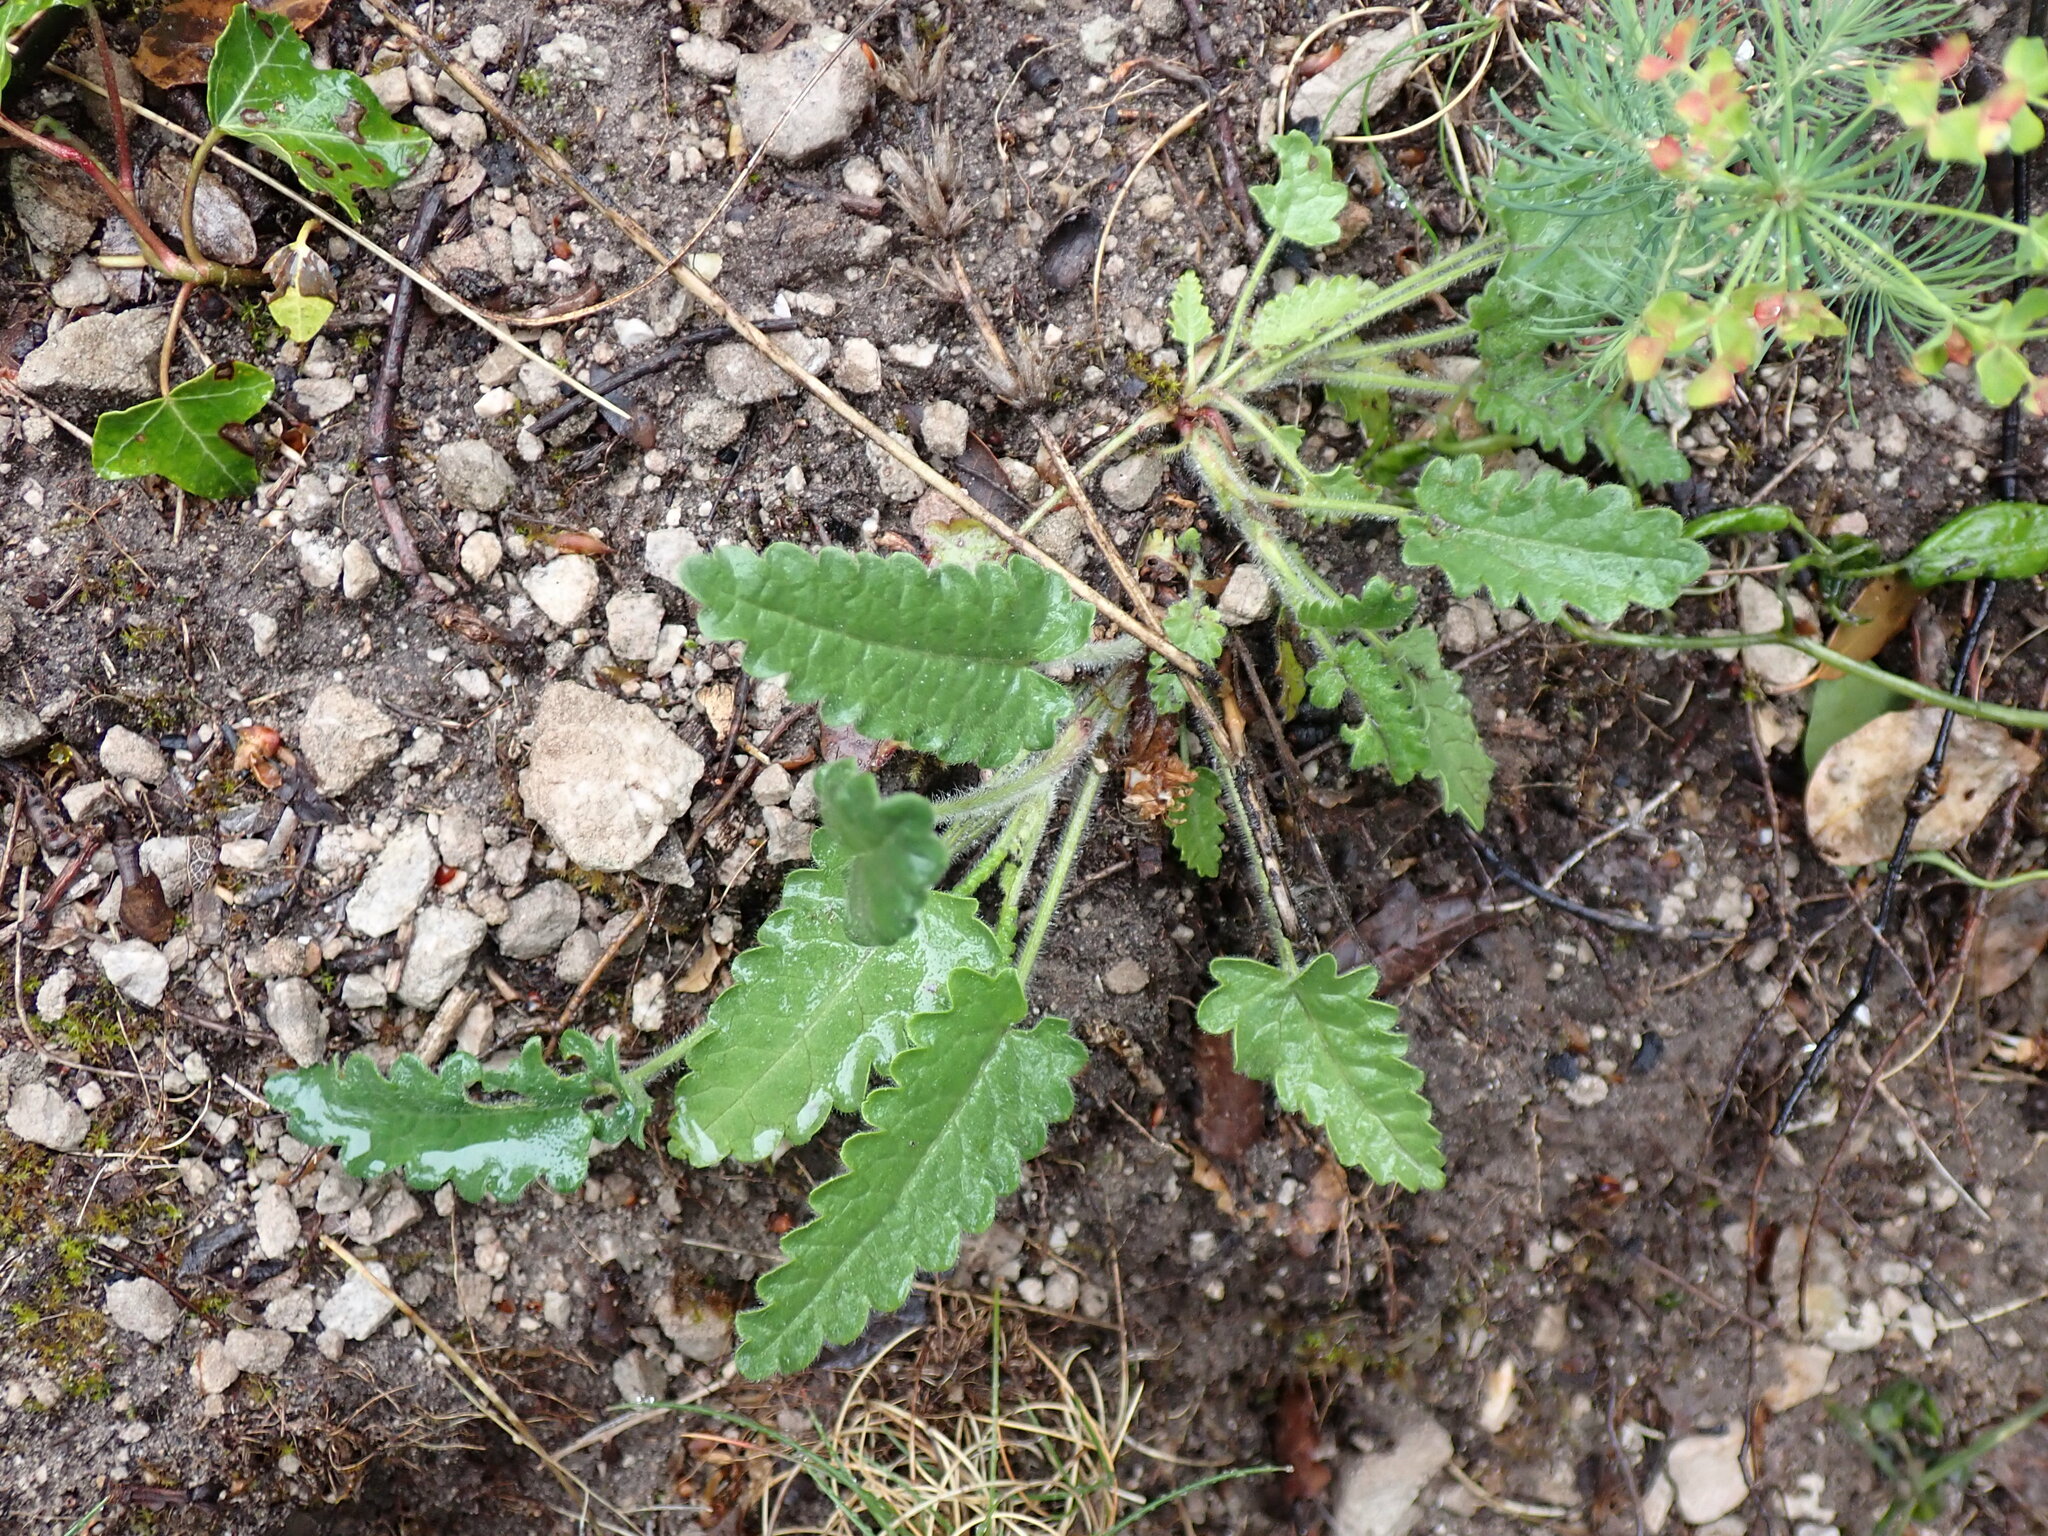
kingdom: Plantae
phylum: Tracheophyta
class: Magnoliopsida
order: Lamiales
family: Lamiaceae
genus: Betonica
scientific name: Betonica officinalis
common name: Bishop's-wort
